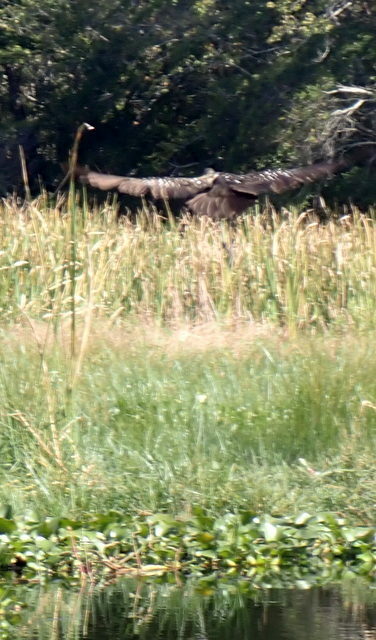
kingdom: Animalia
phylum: Chordata
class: Aves
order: Gruiformes
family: Aramidae
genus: Aramus
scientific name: Aramus guarauna
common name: Limpkin
